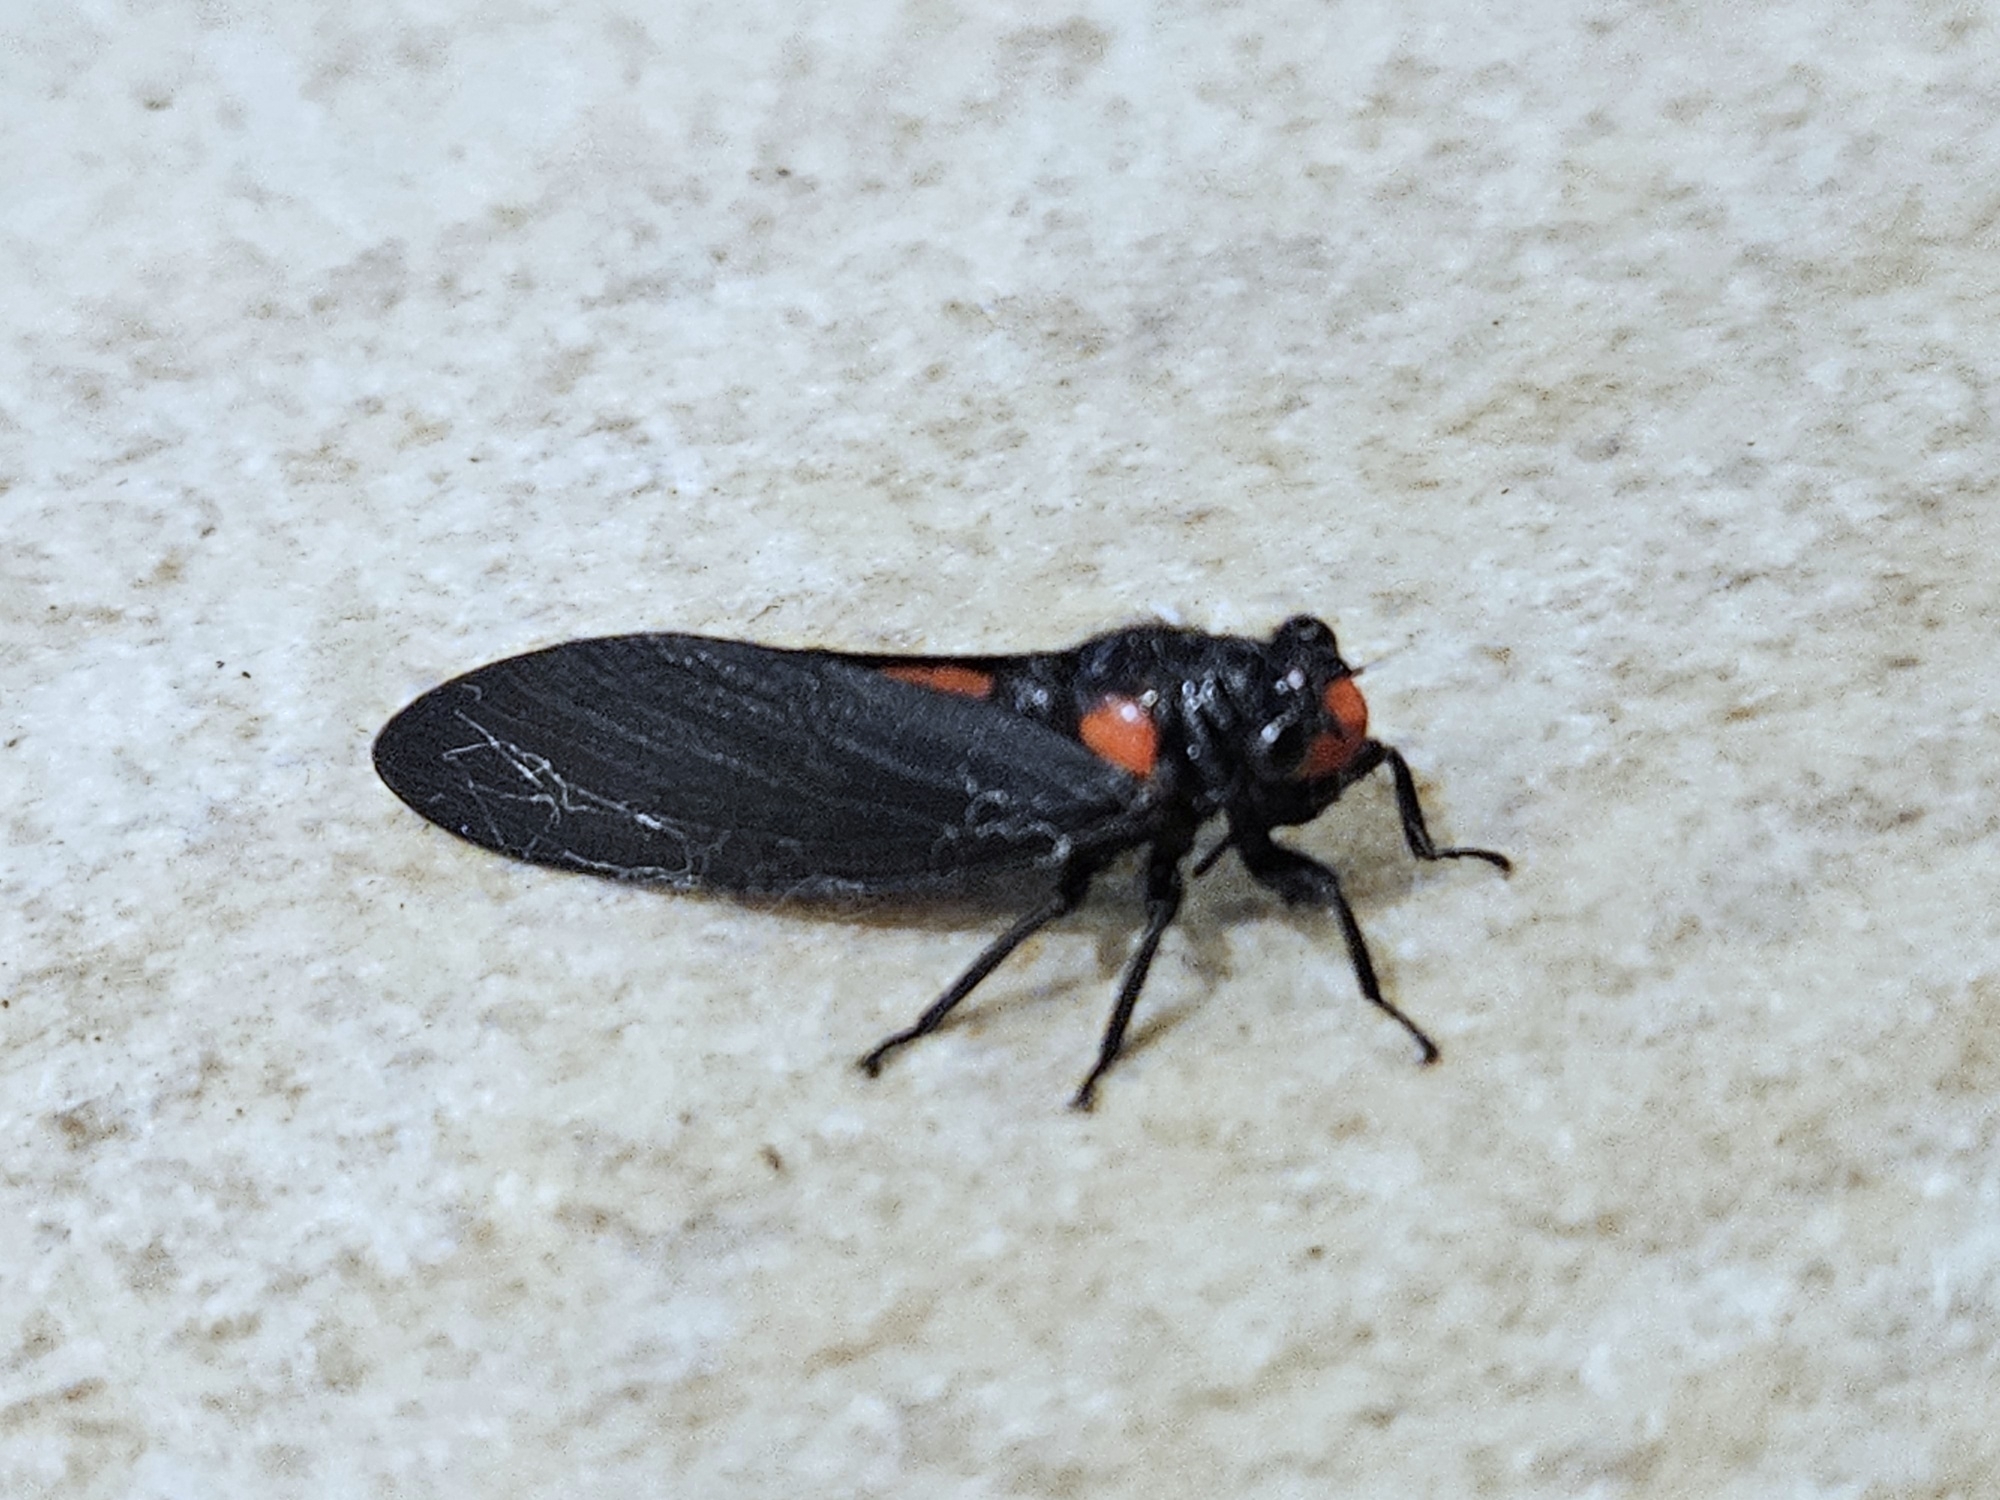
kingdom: Animalia
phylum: Arthropoda
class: Insecta
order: Hemiptera
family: Cicadidae
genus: Huechys
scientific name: Huechys sanguinea
